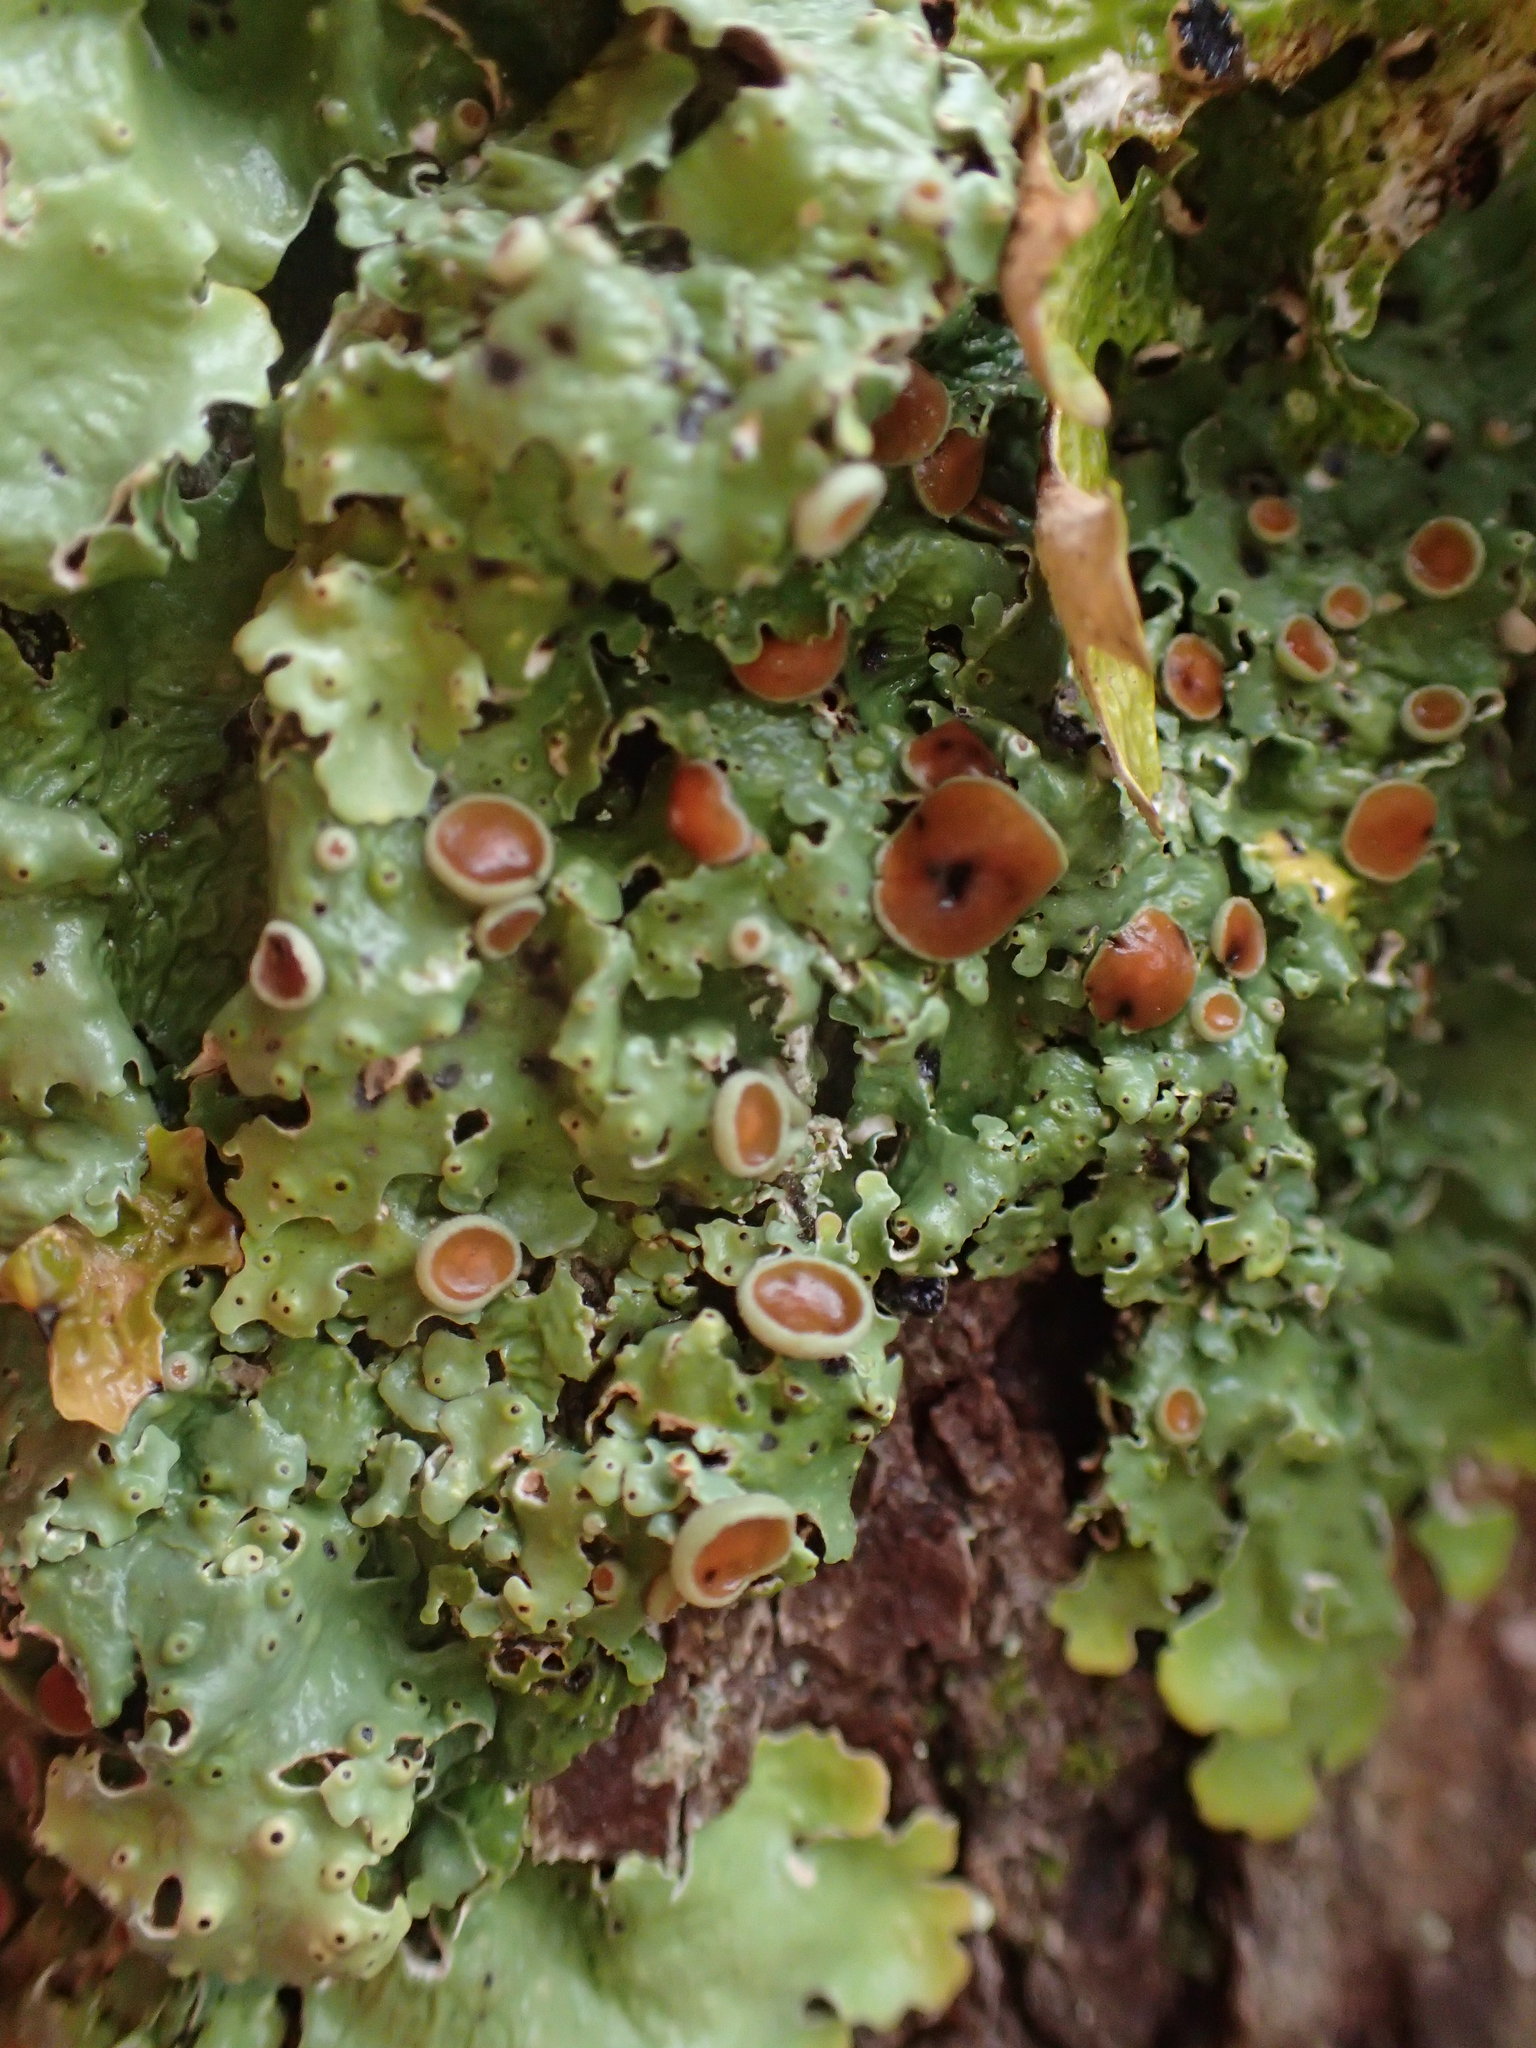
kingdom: Fungi
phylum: Ascomycota
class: Lecanoromycetes
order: Peltigerales
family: Lobariaceae
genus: Ricasolia
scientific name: Ricasolia quercizans
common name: Smooth lungwort
